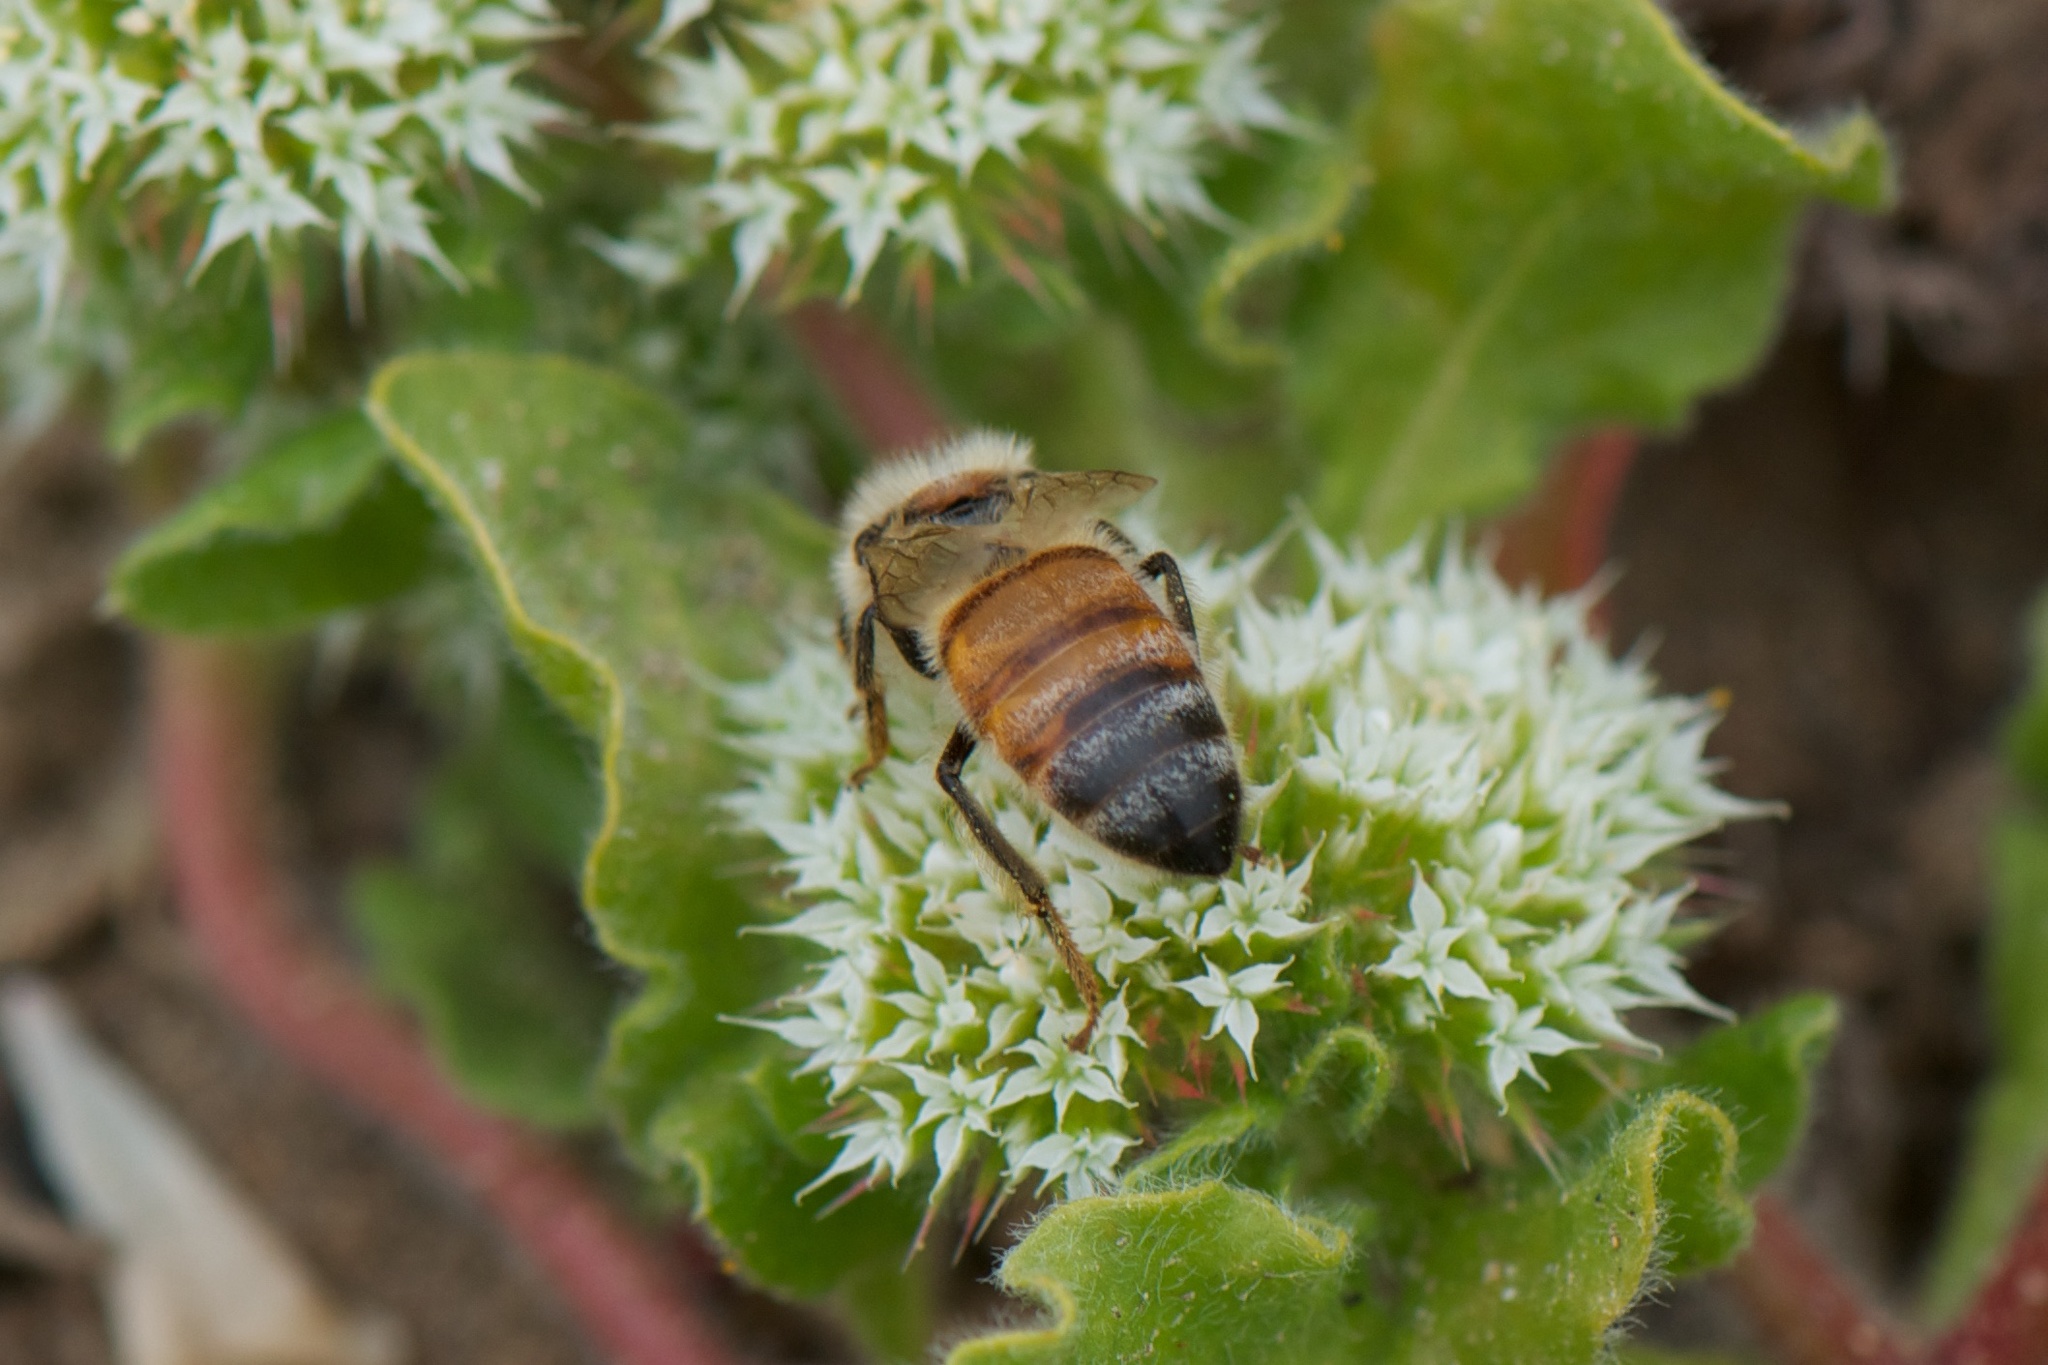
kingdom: Animalia
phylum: Arthropoda
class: Insecta
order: Hymenoptera
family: Apidae
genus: Apis
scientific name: Apis mellifera
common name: Honey bee
